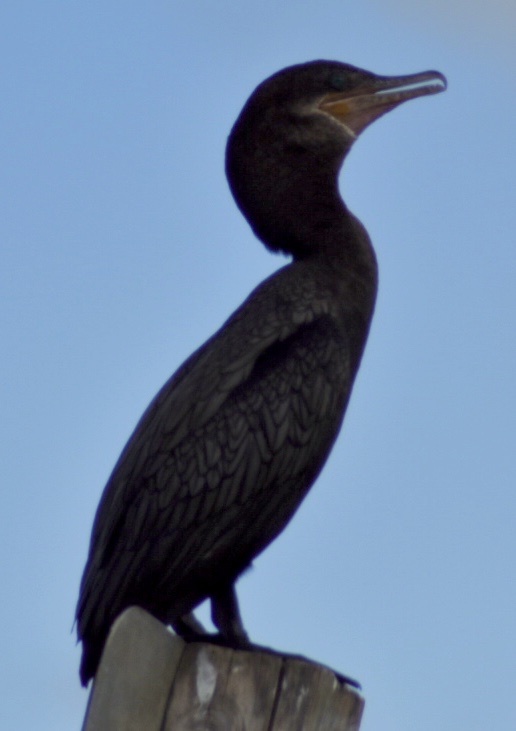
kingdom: Animalia
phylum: Chordata
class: Aves
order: Suliformes
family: Phalacrocoracidae
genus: Phalacrocorax
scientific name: Phalacrocorax brasilianus
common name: Neotropic cormorant
